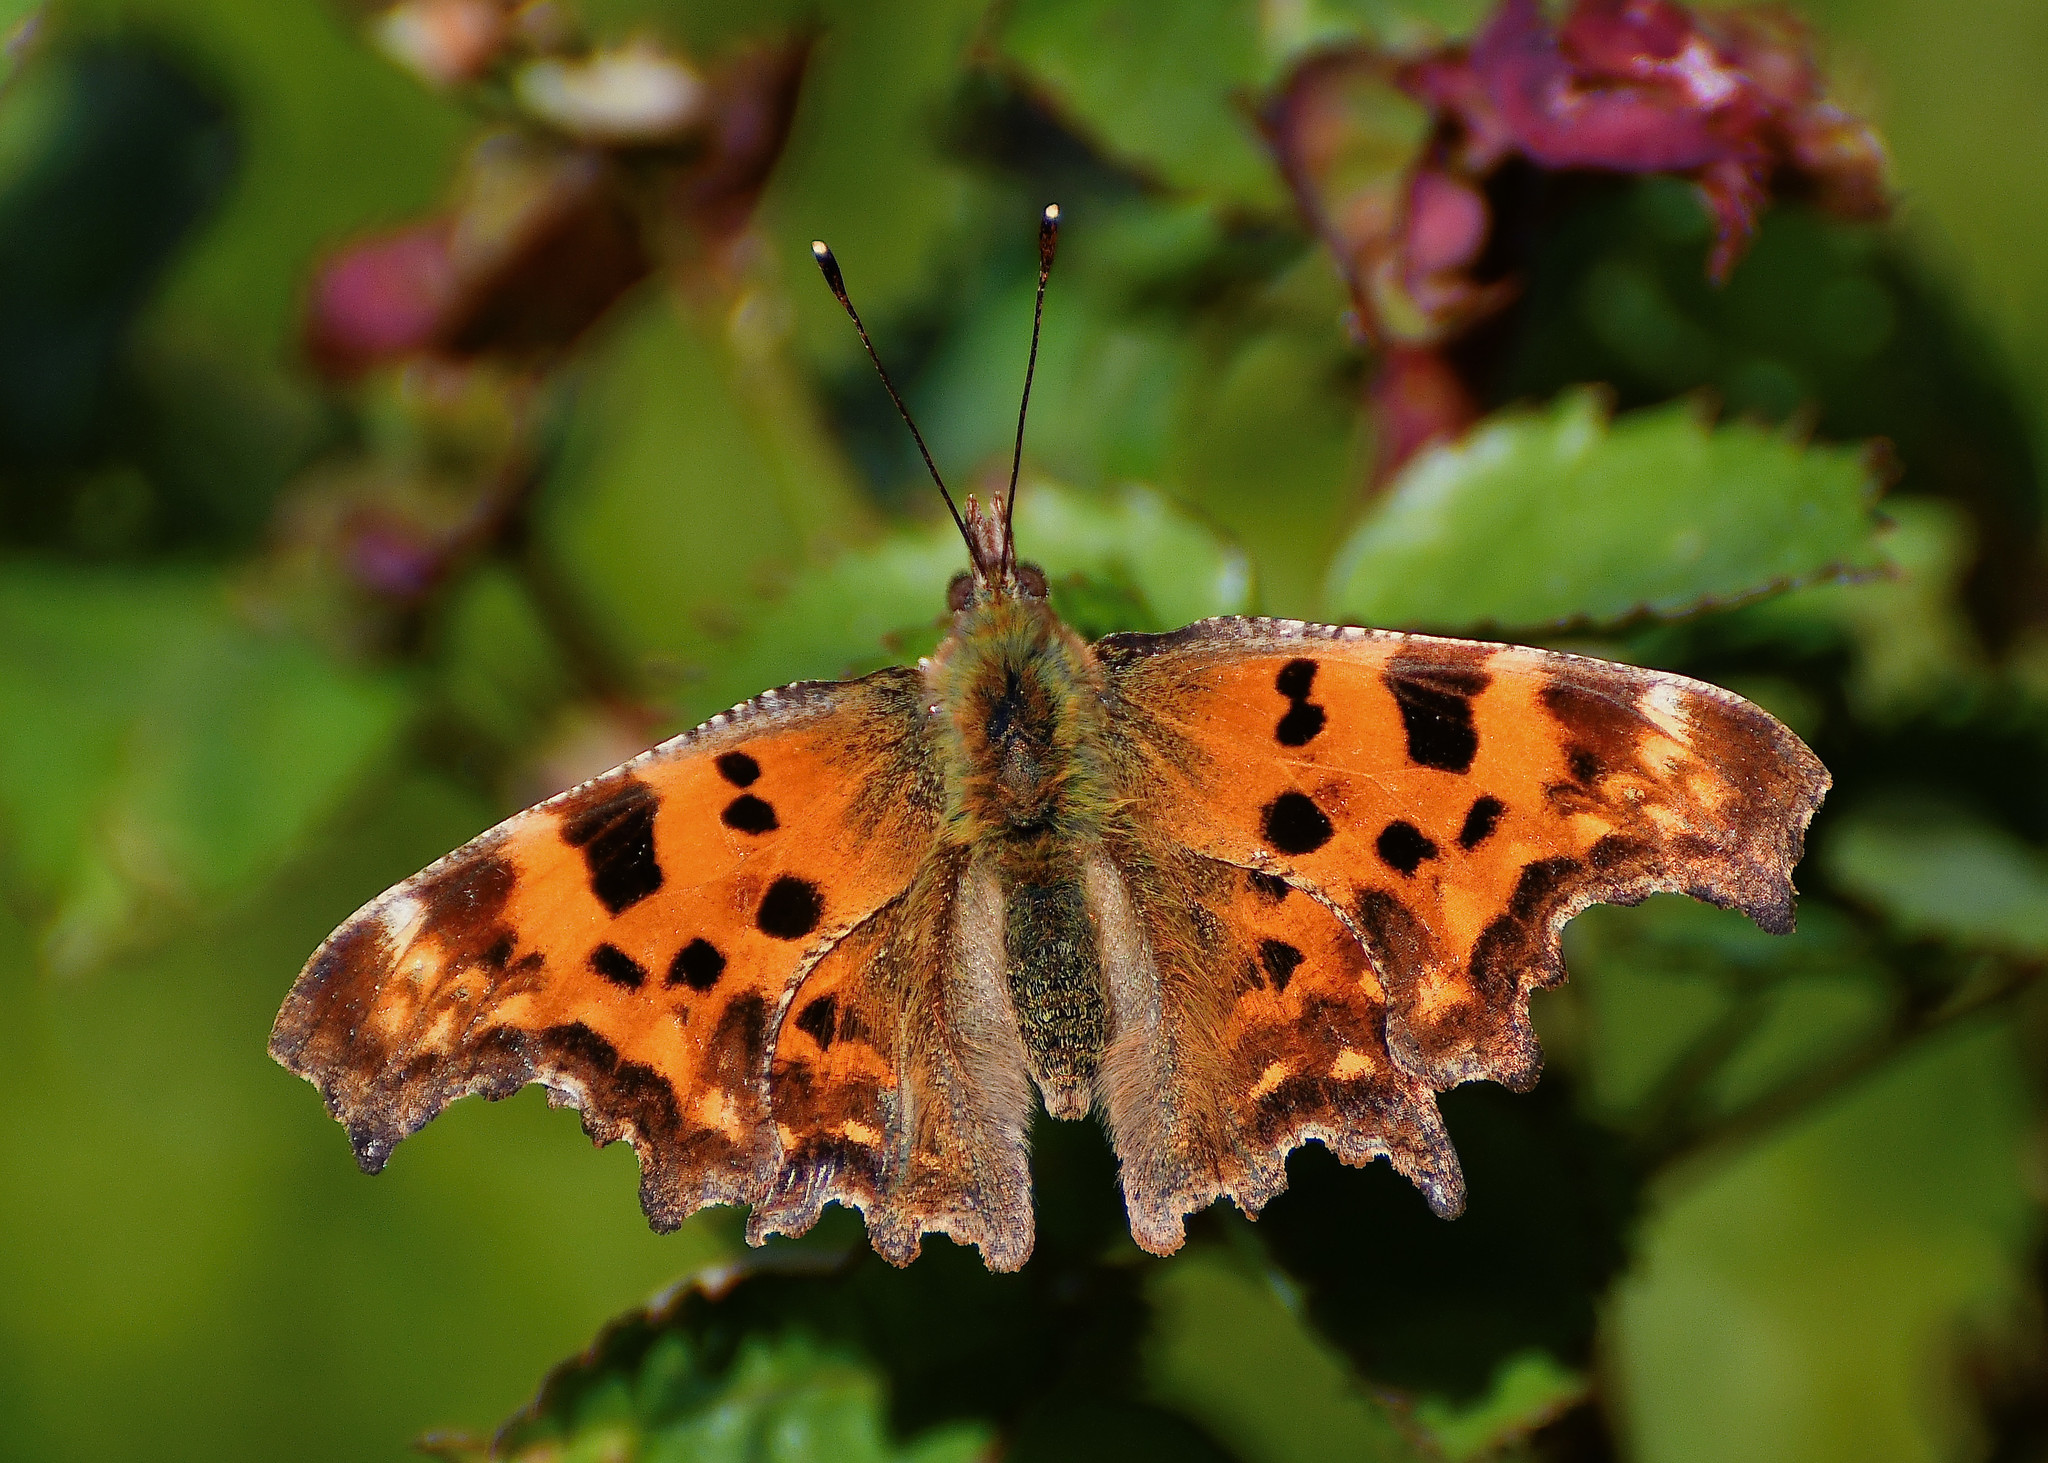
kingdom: Animalia
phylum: Arthropoda
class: Insecta
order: Lepidoptera
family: Nymphalidae
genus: Polygonia
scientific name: Polygonia c-album
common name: Comma
